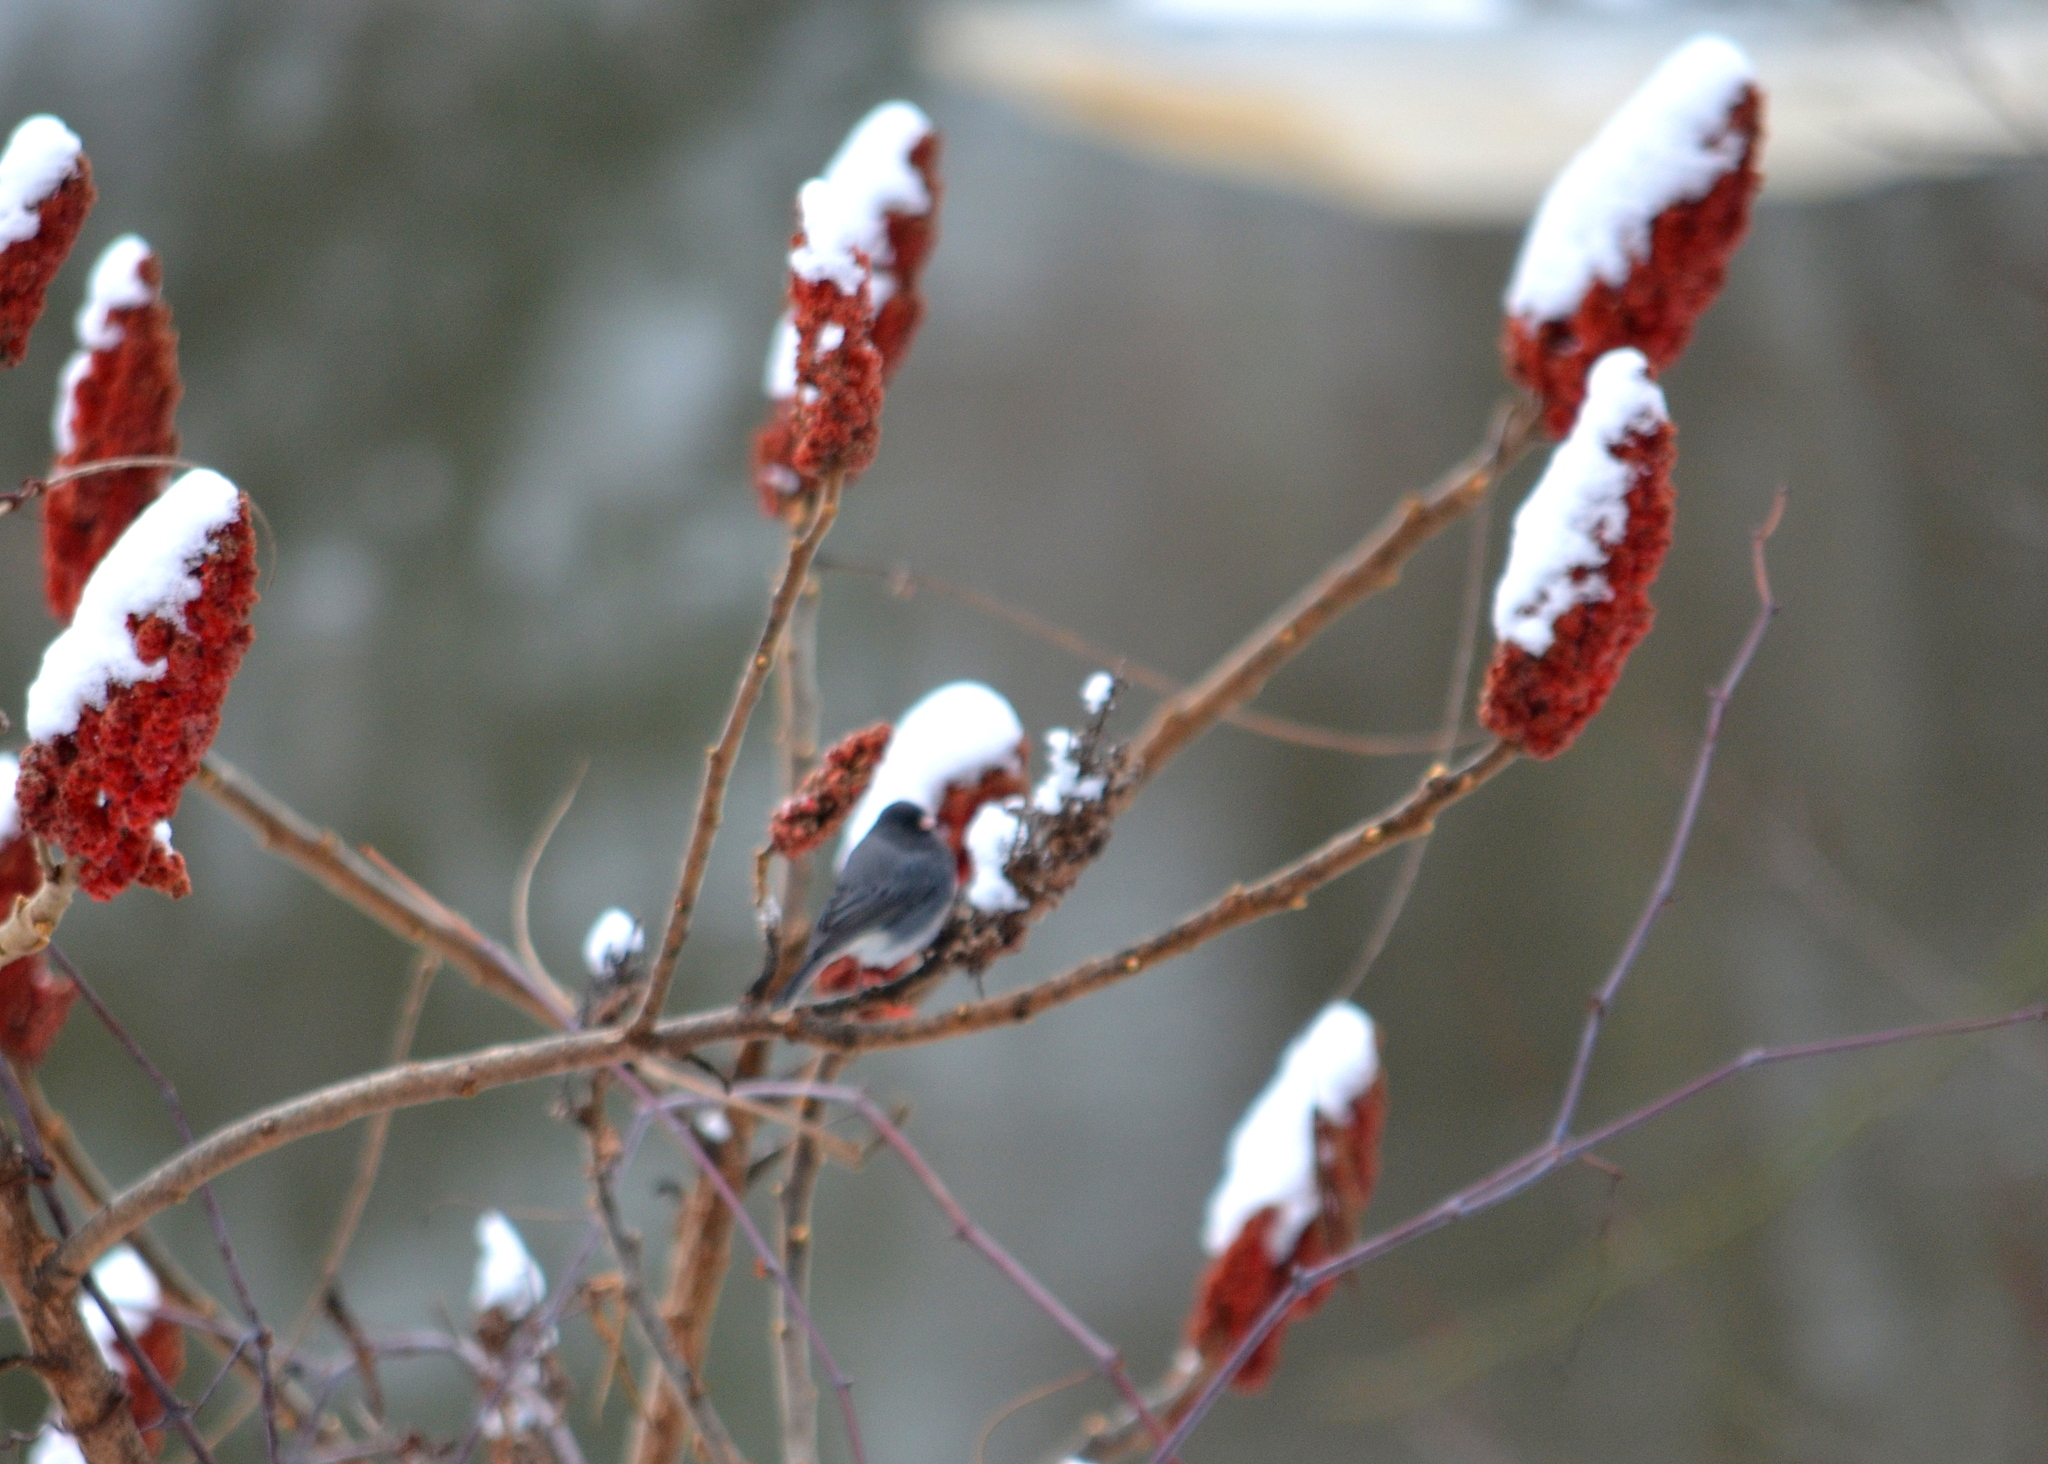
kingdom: Animalia
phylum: Chordata
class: Aves
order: Passeriformes
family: Passerellidae
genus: Junco
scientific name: Junco hyemalis
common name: Dark-eyed junco
